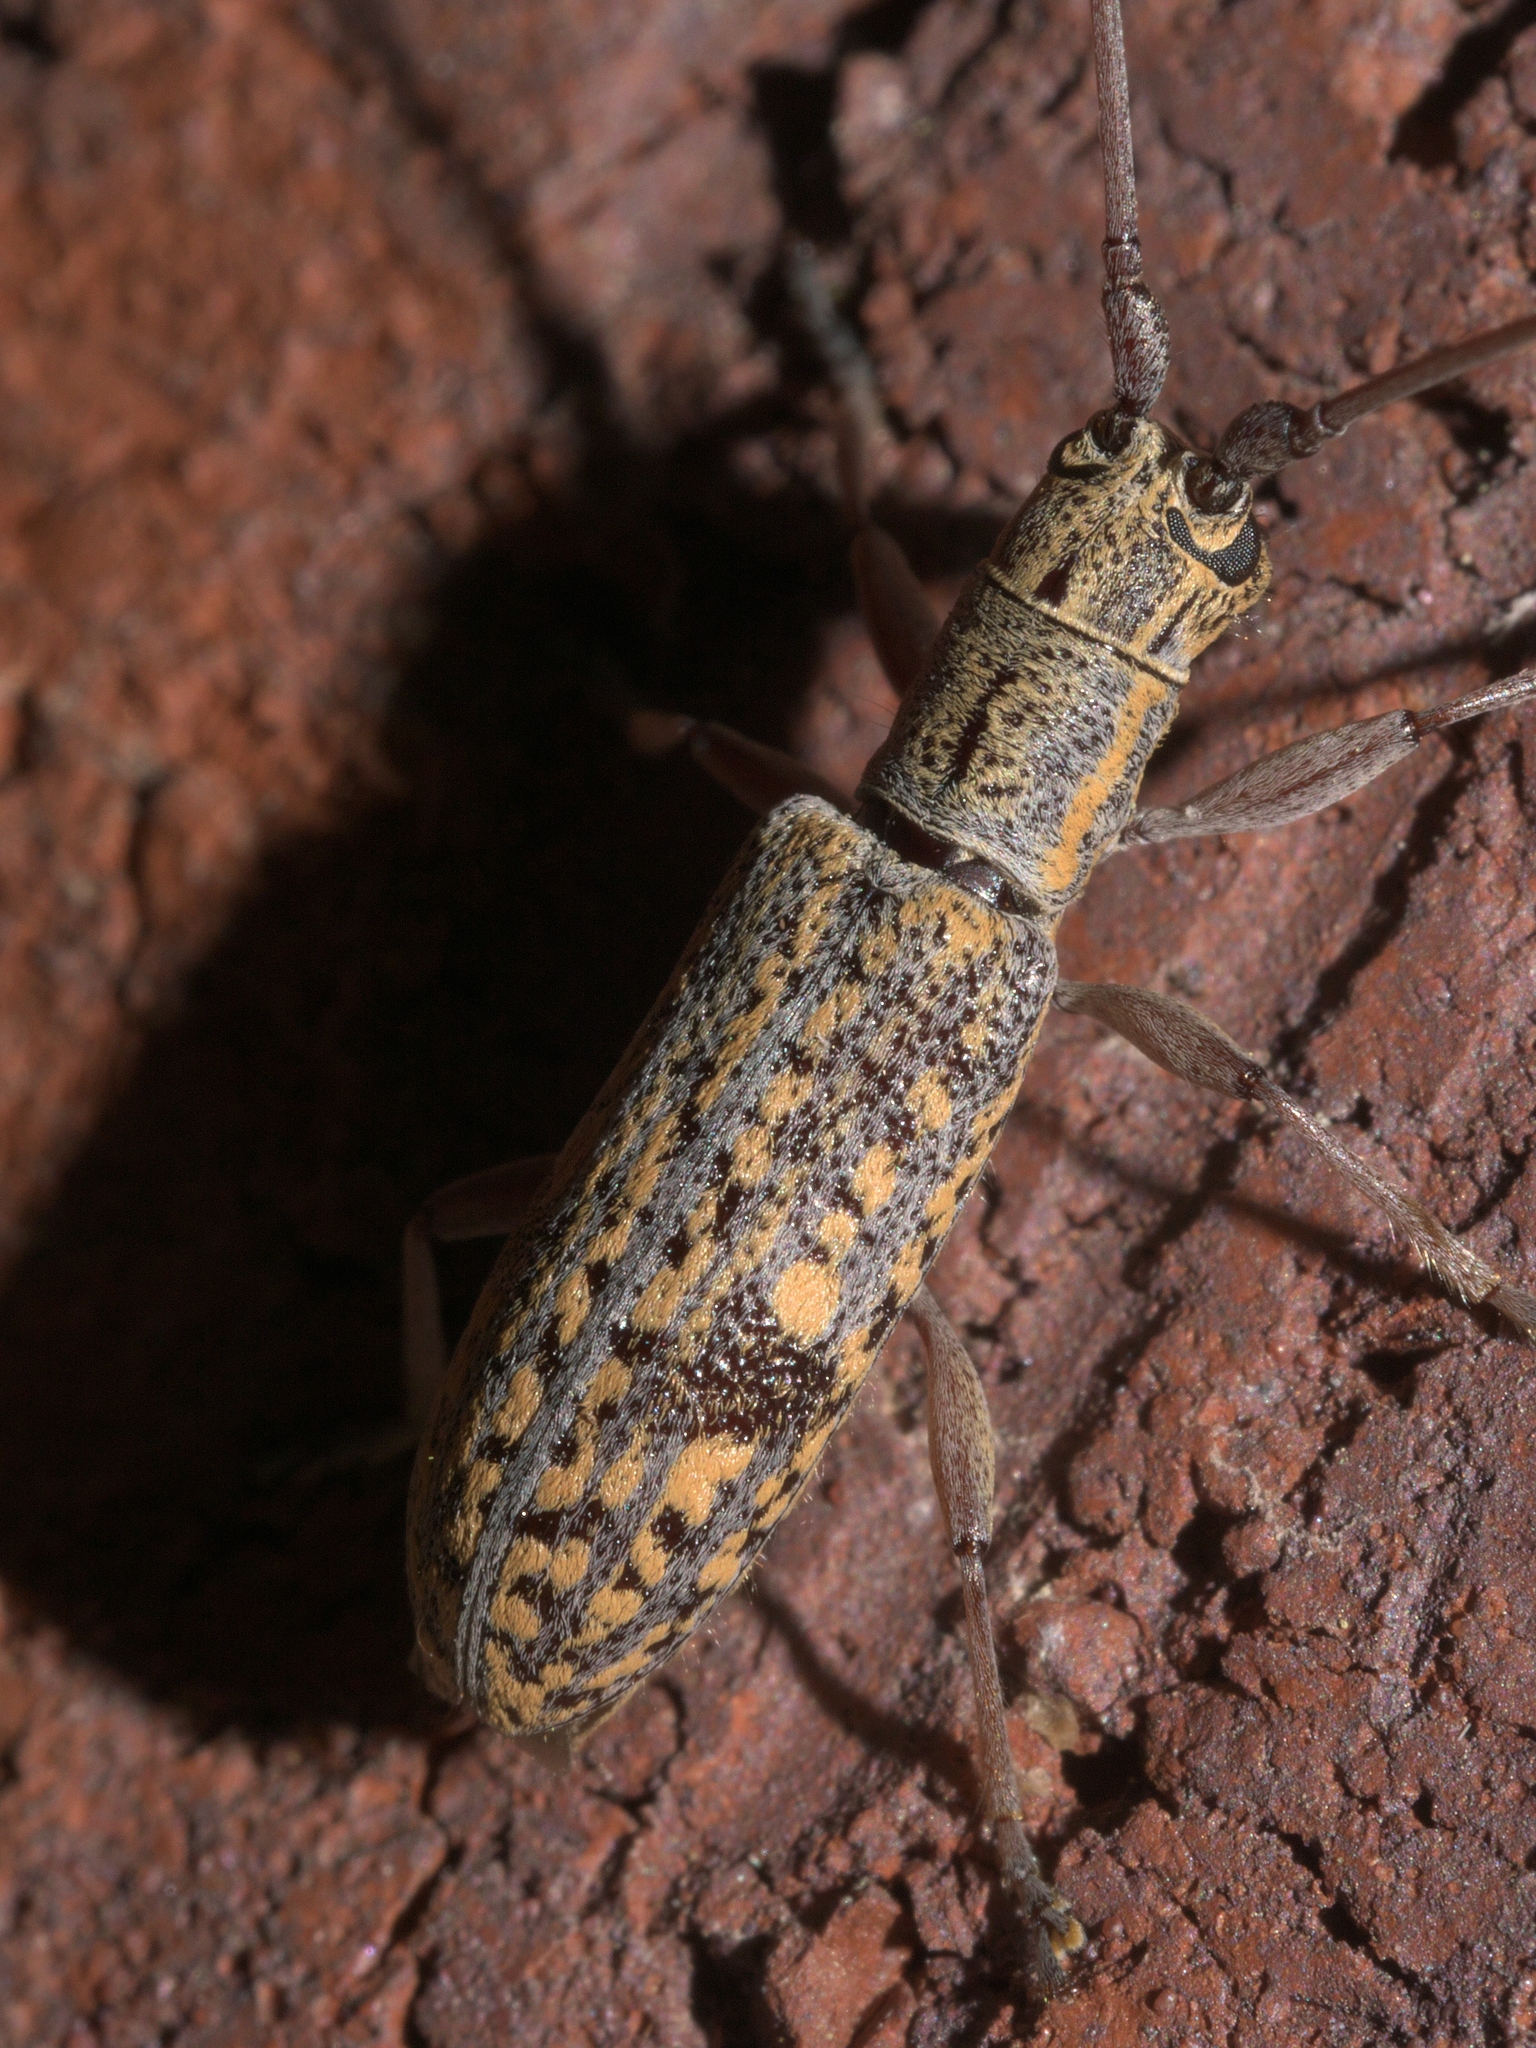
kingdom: Animalia
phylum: Arthropoda
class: Insecta
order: Coleoptera
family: Cerambycidae
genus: Dorcaschema
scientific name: Dorcaschema alternatum
